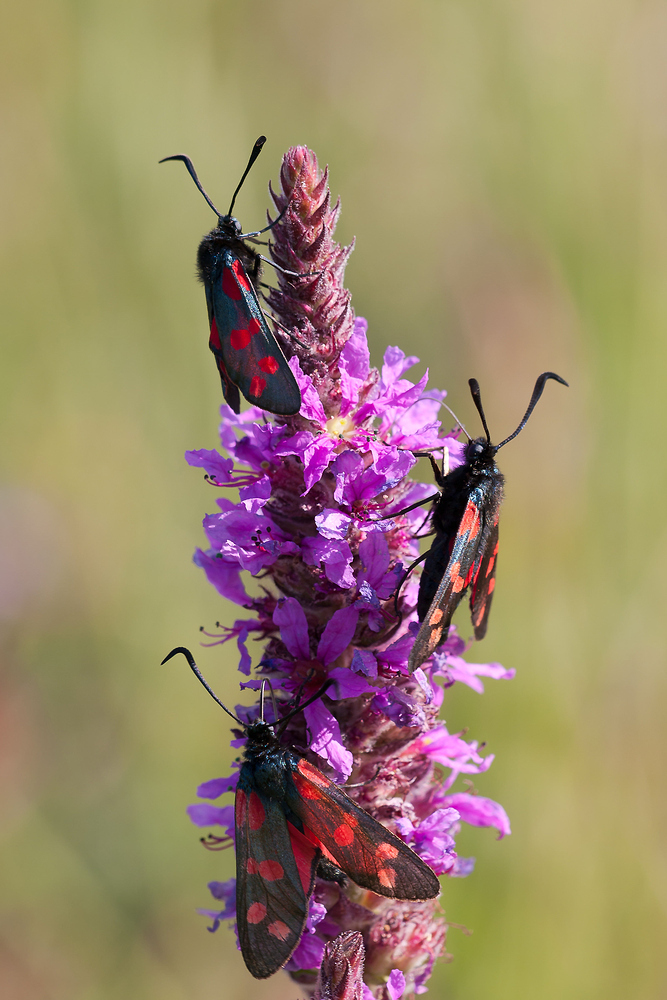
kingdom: Animalia
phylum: Arthropoda
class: Insecta
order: Lepidoptera
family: Zygaenidae
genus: Zygaena
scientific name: Zygaena filipendulae
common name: Six-spot burnet
